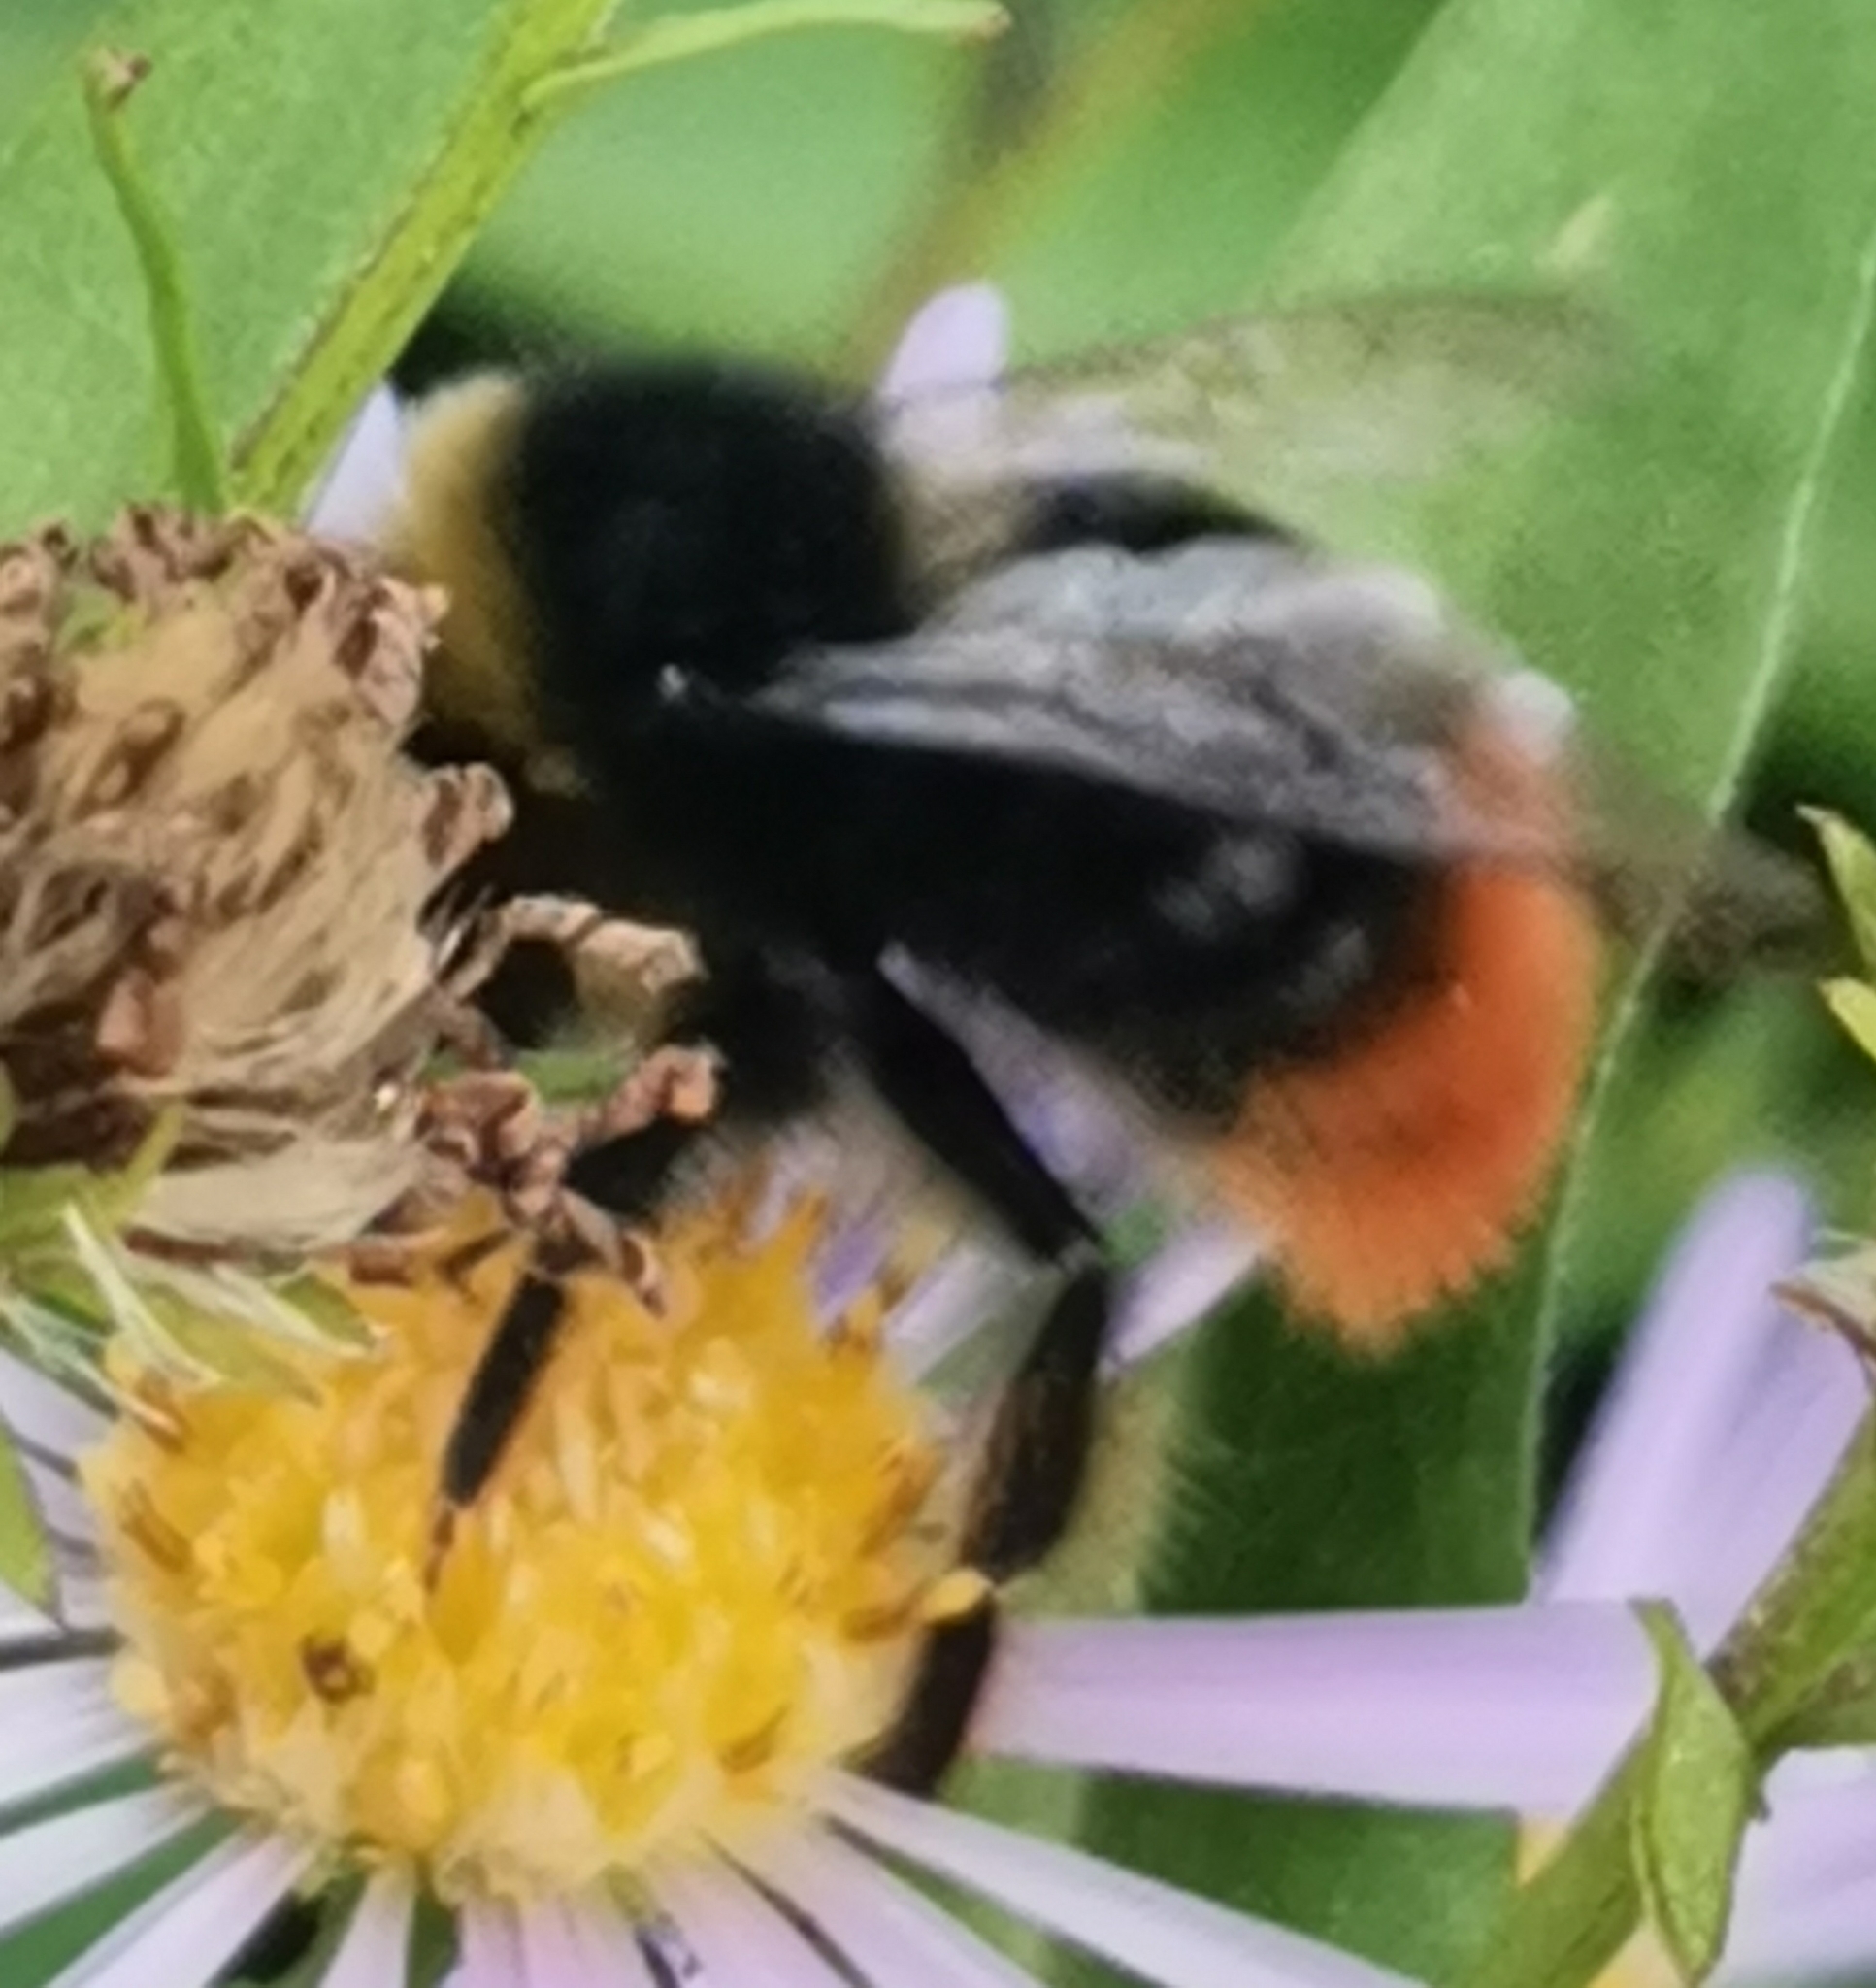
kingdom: Animalia
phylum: Arthropoda
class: Insecta
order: Hymenoptera
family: Apidae
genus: Bombus
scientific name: Bombus lapidarius
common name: Large red-tailed humble-bee
